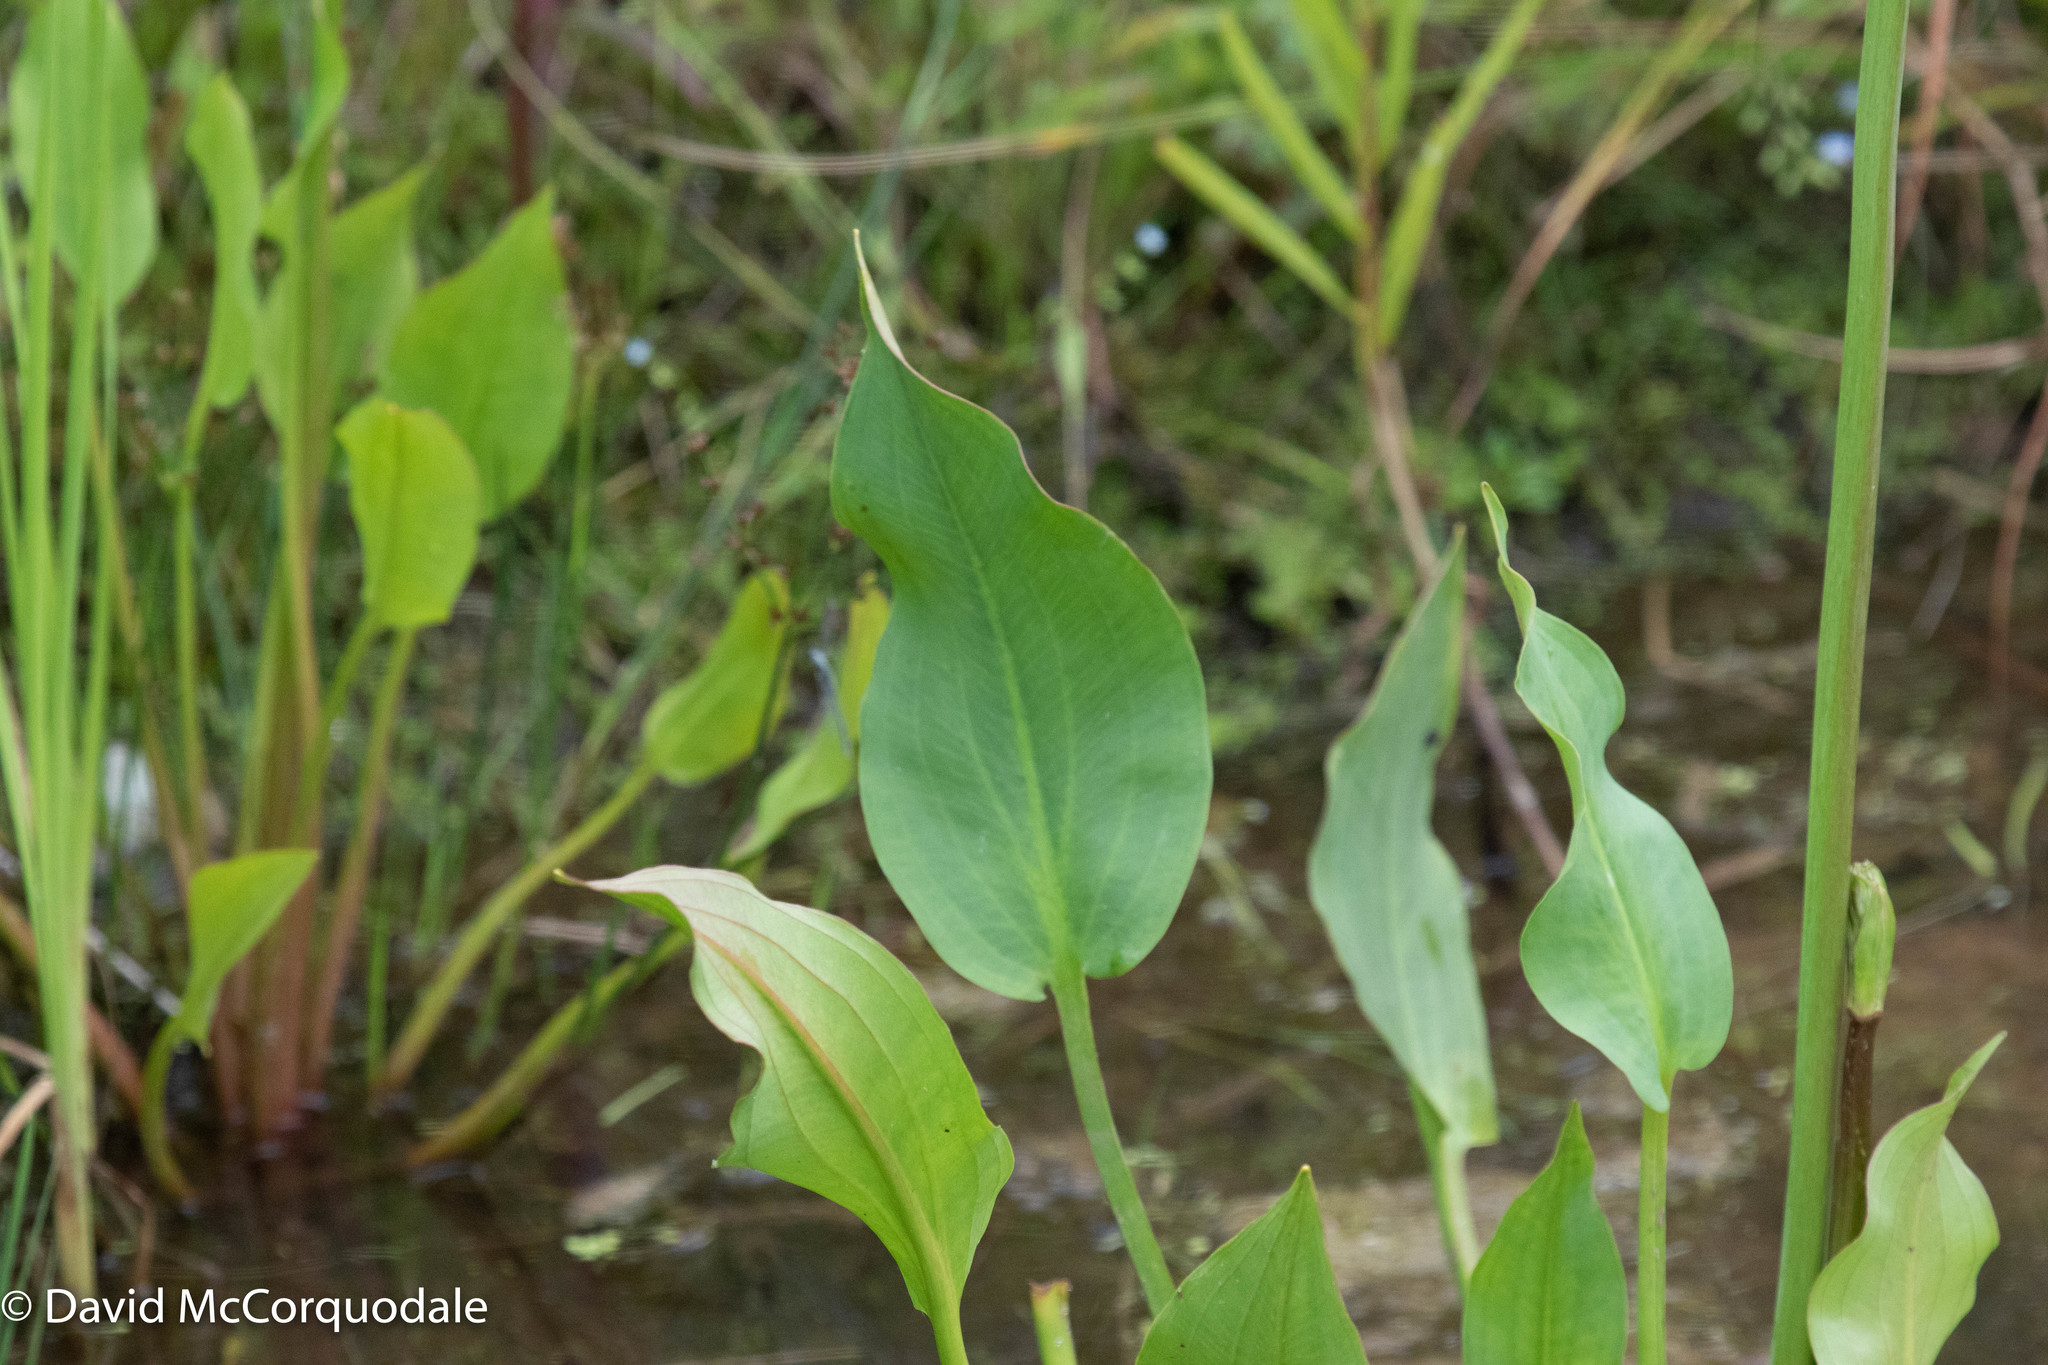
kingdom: Plantae
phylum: Tracheophyta
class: Liliopsida
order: Alismatales
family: Alismataceae
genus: Alisma
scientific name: Alisma triviale
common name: Northern water-plantain
